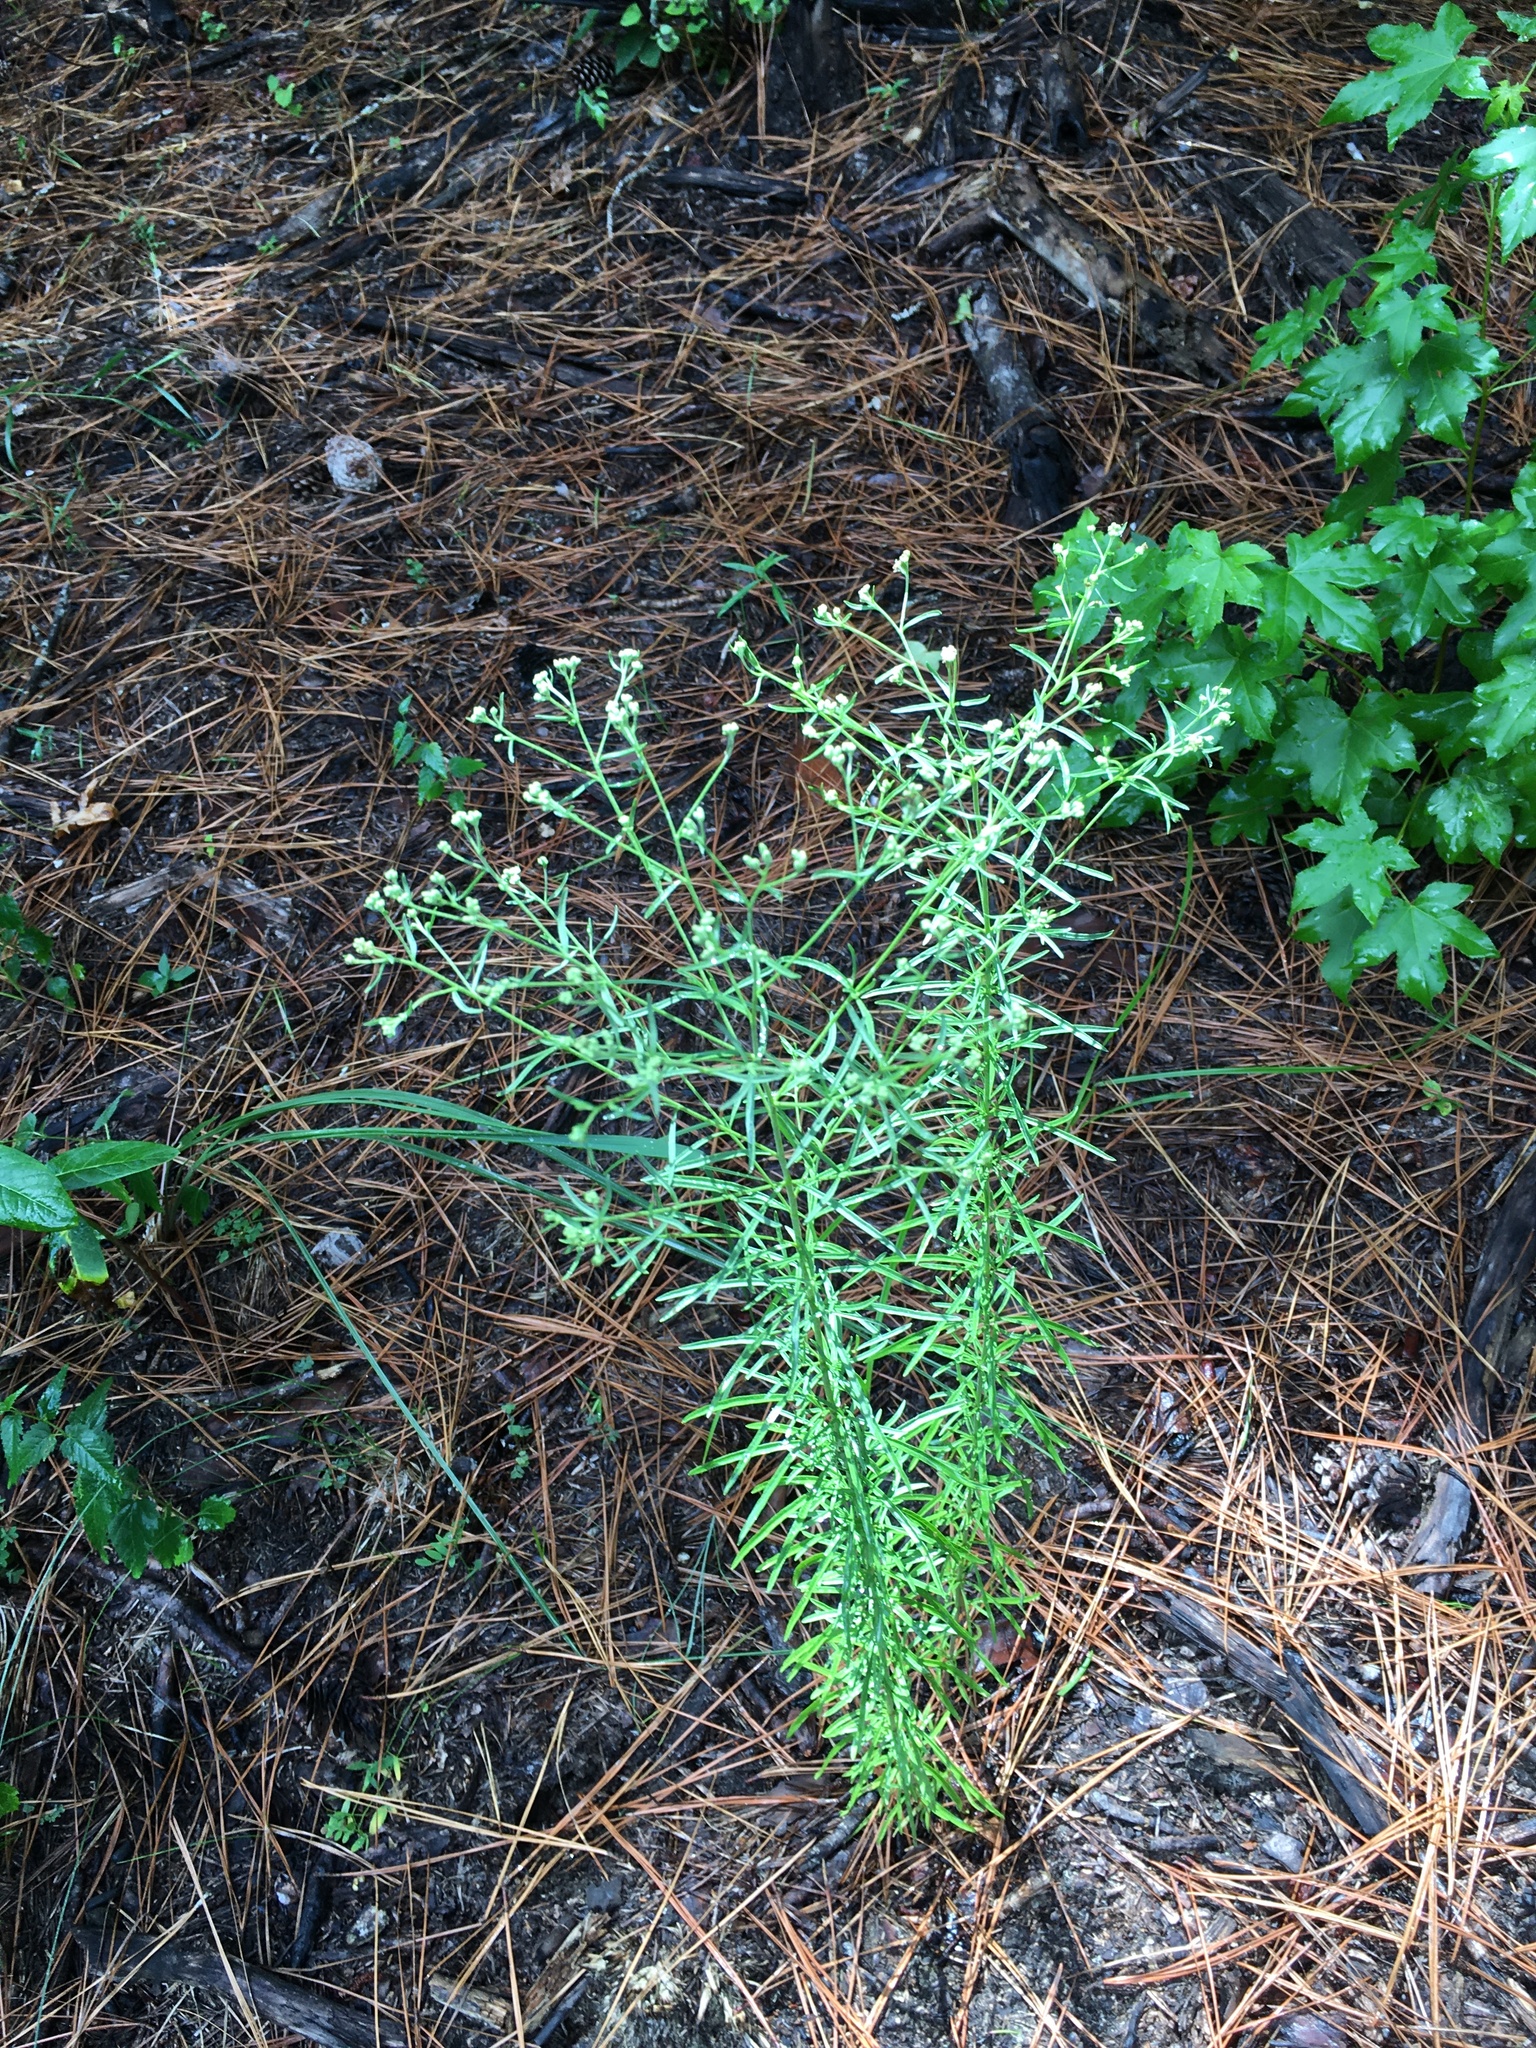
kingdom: Plantae
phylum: Tracheophyta
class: Magnoliopsida
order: Asterales
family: Asteraceae
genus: Eupatorium
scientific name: Eupatorium hyssopifolium
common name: Hyssop-leaf thoroughwort
